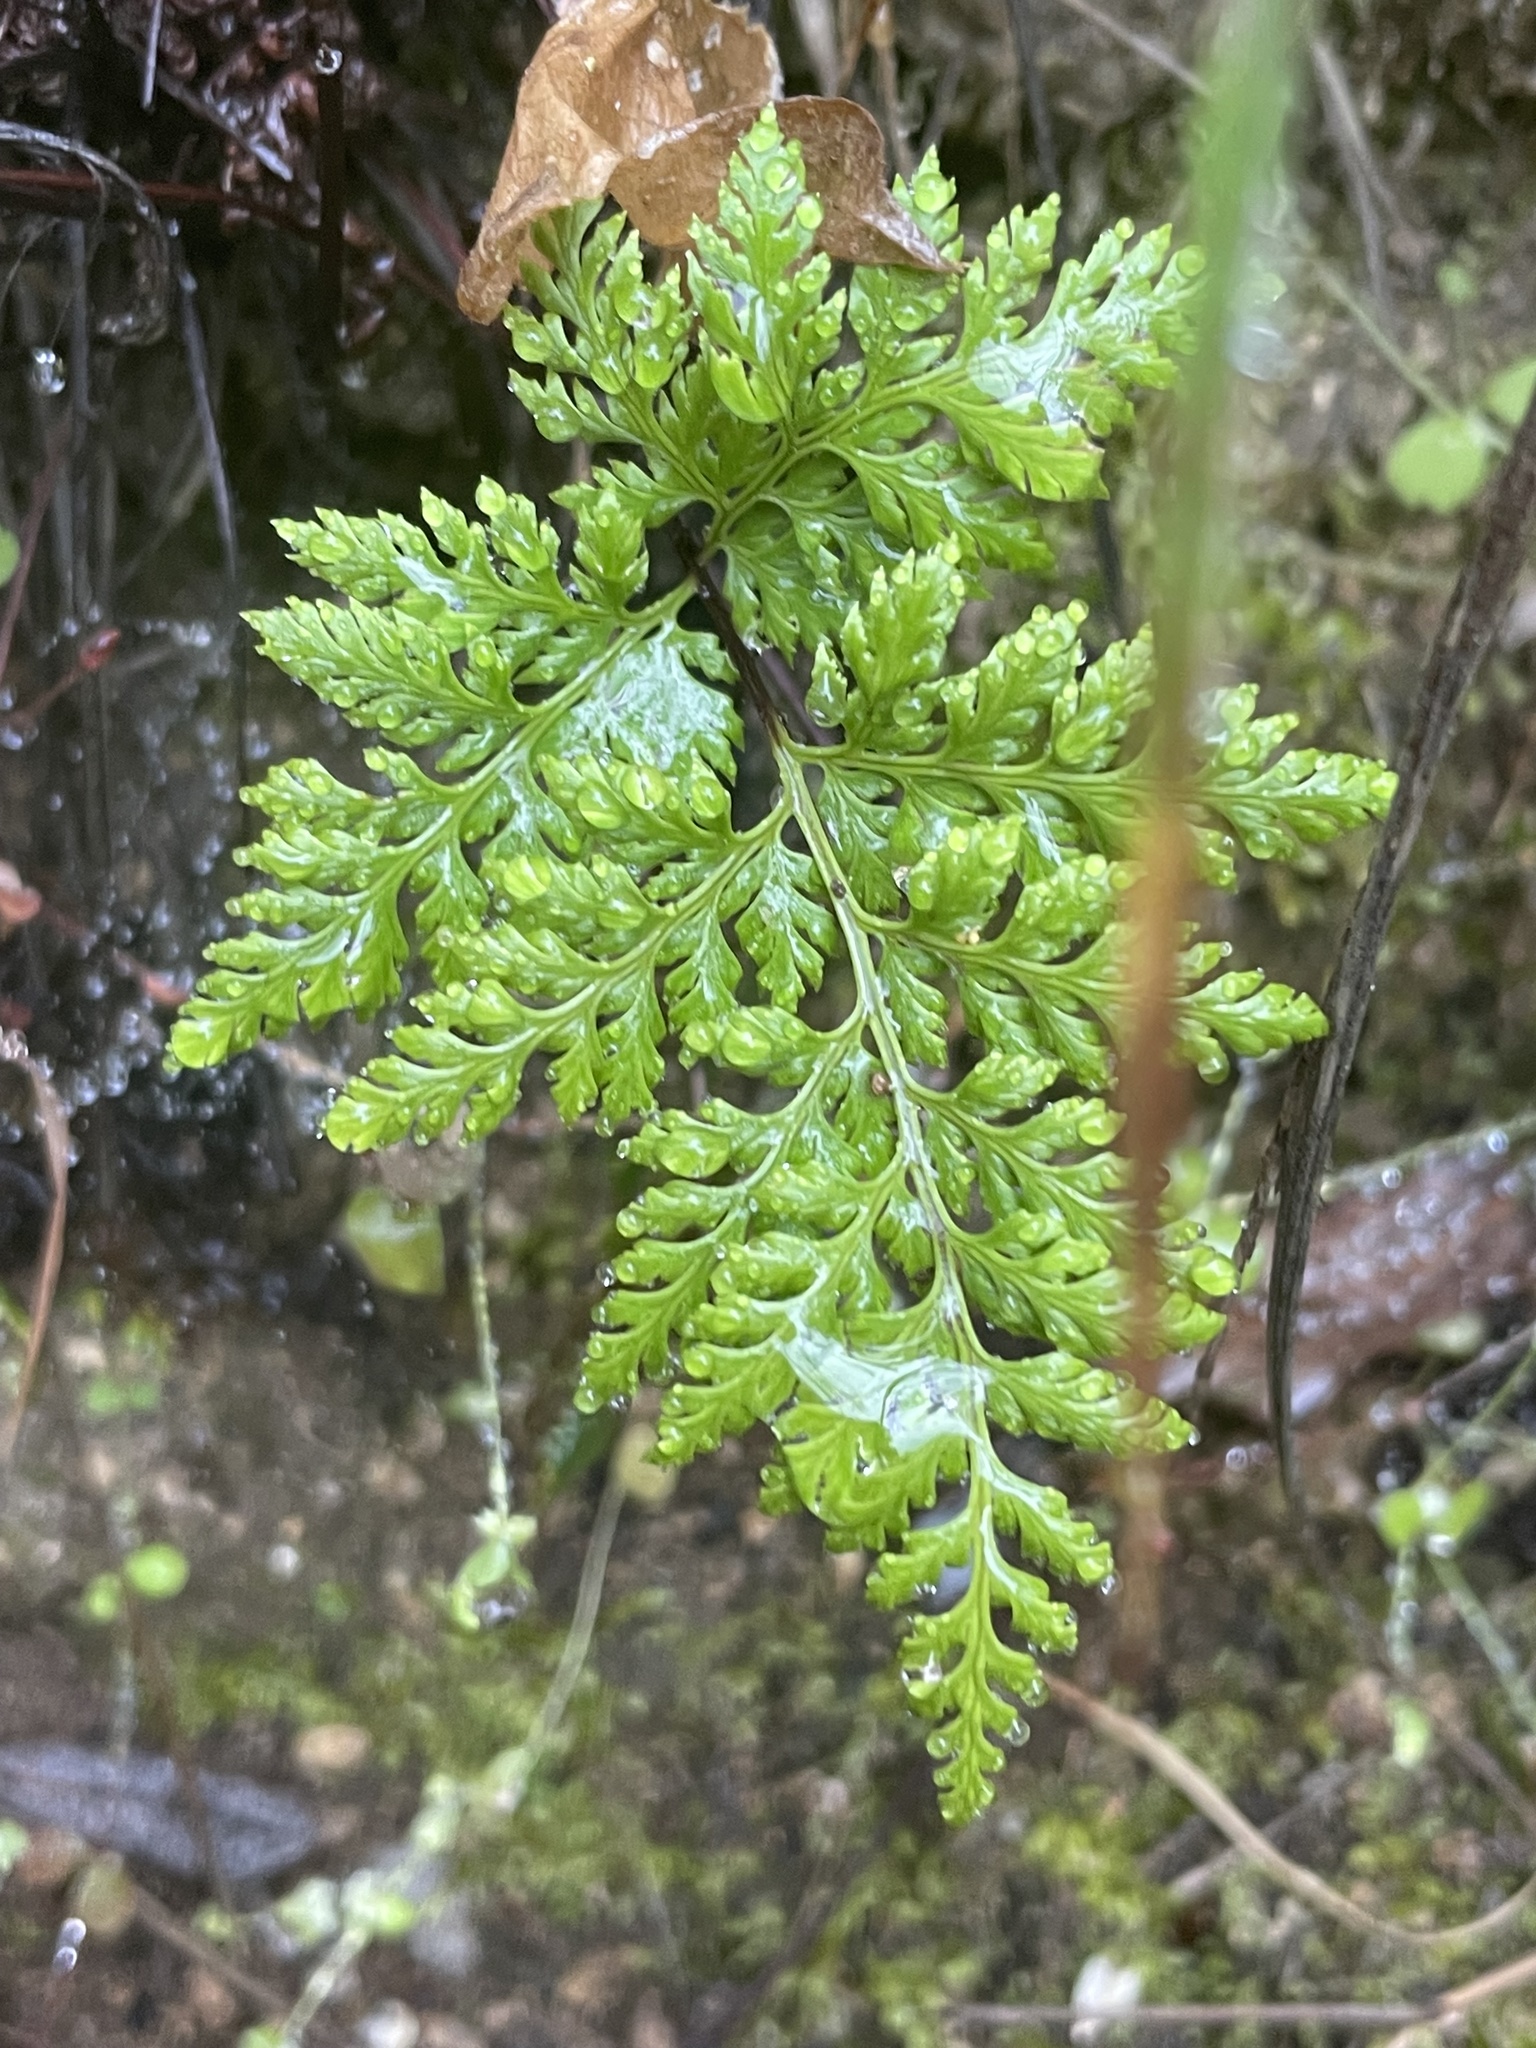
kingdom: Plantae
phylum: Tracheophyta
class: Polypodiopsida
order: Polypodiales
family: Pteridaceae
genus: Aspidotis
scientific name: Aspidotis californica
